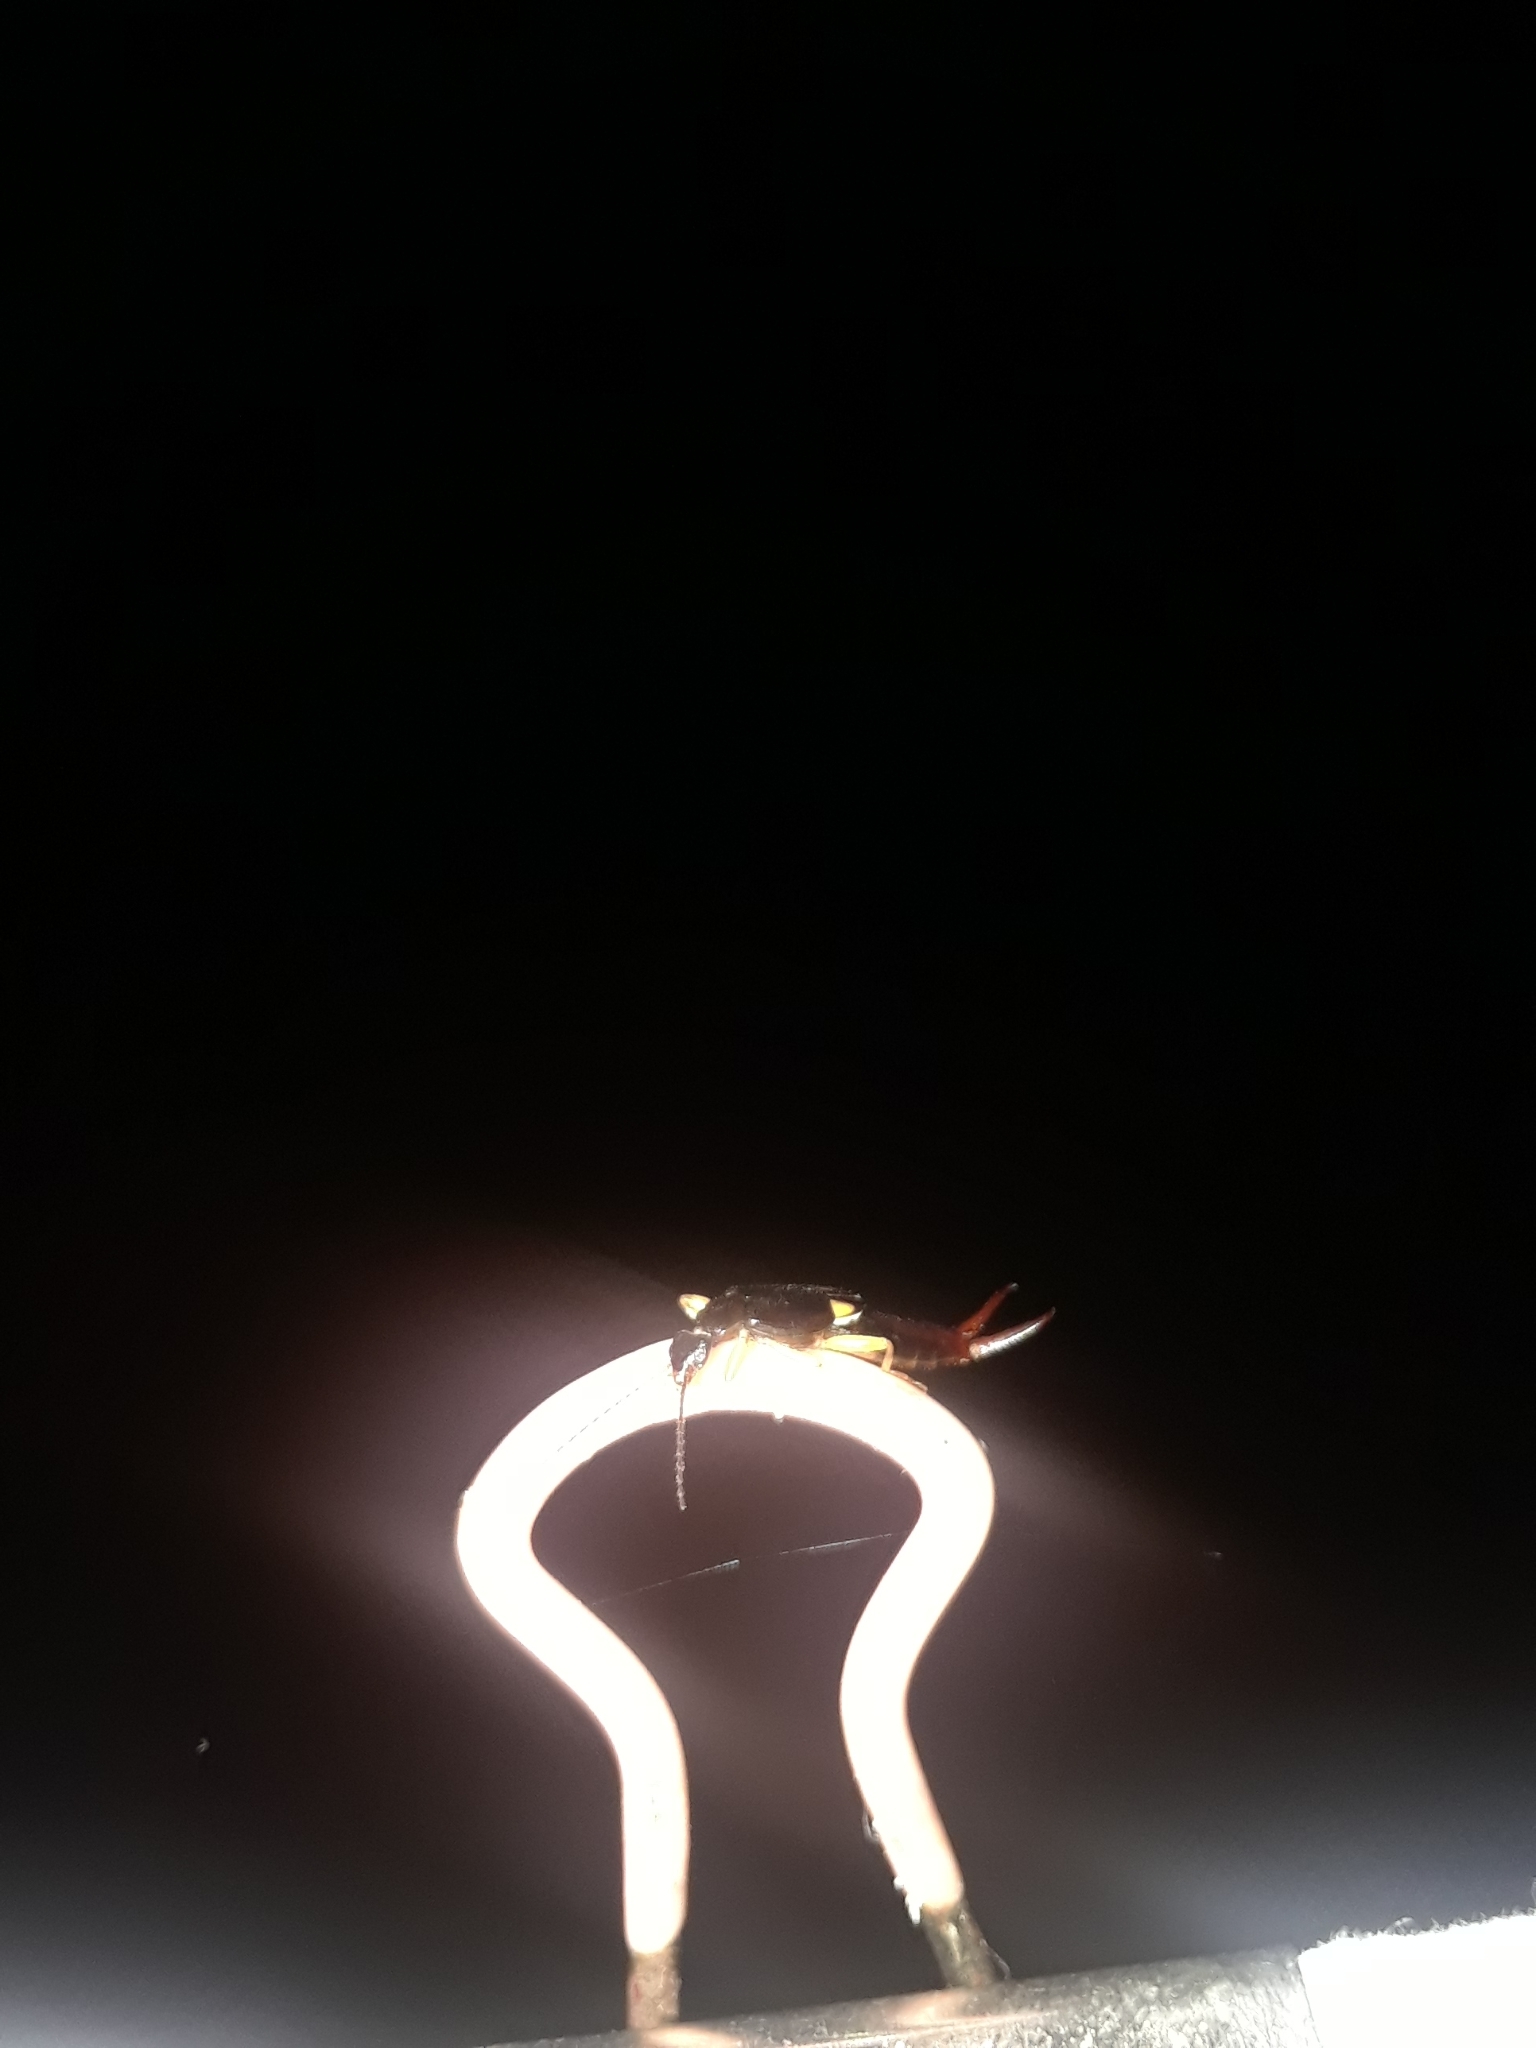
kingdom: Animalia
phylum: Arthropoda
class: Insecta
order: Dermaptera
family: Spongiphoridae
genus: Vostox
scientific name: Vostox brunneipennis
